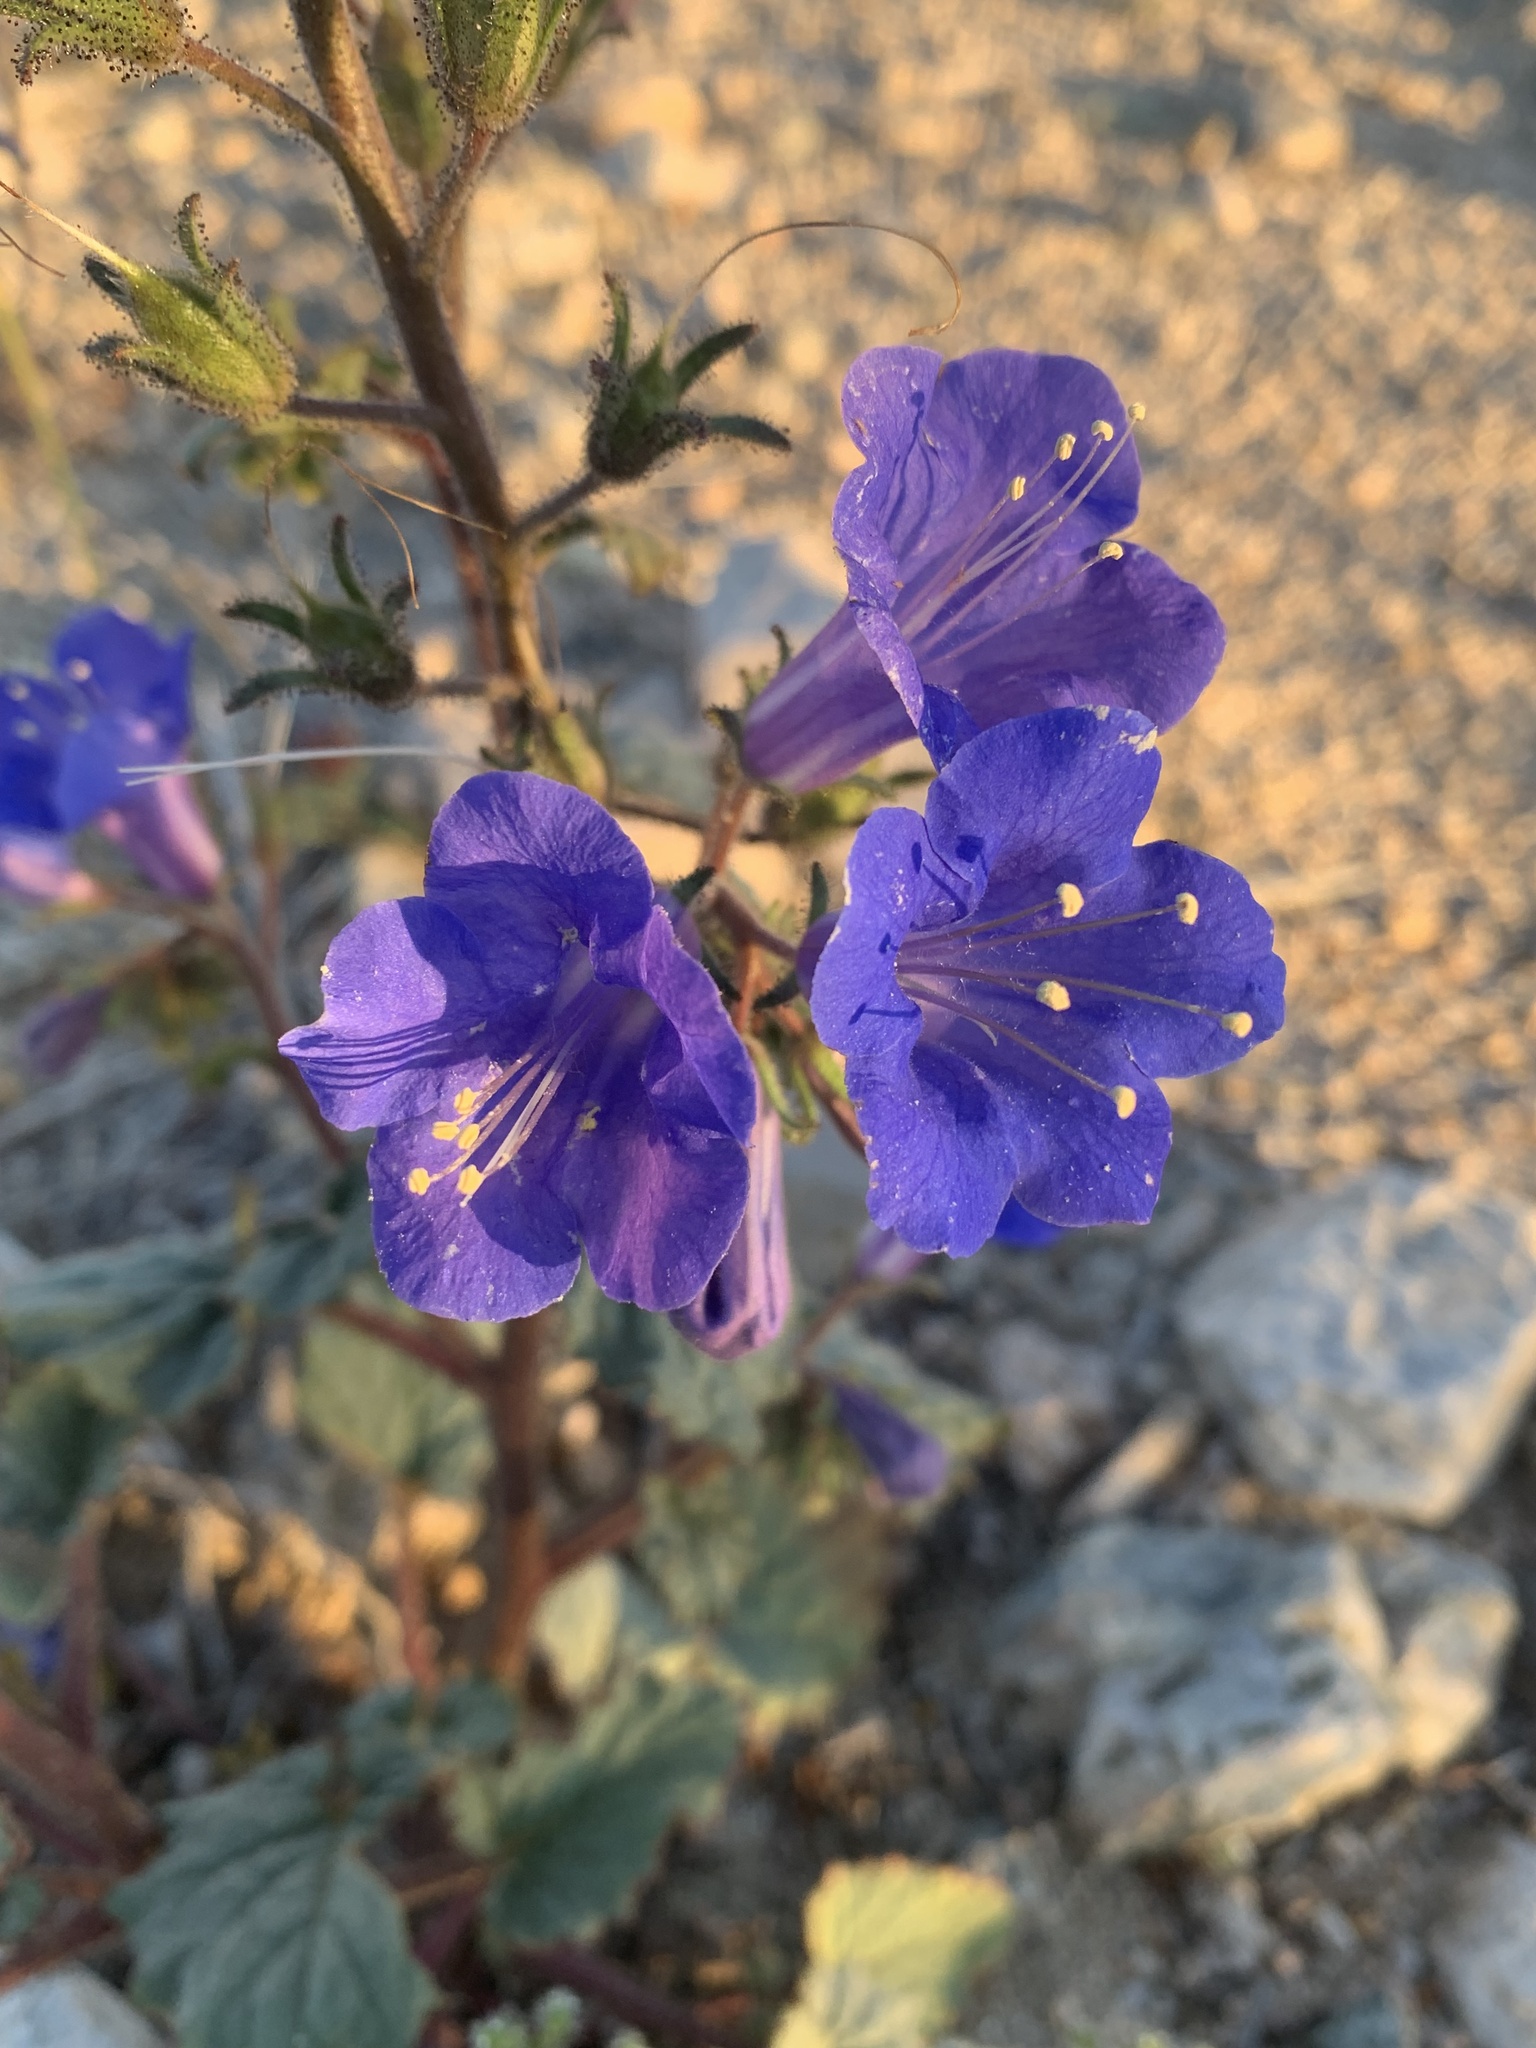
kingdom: Plantae
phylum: Tracheophyta
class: Magnoliopsida
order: Boraginales
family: Hydrophyllaceae
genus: Phacelia
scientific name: Phacelia campanularia
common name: California bluebell
